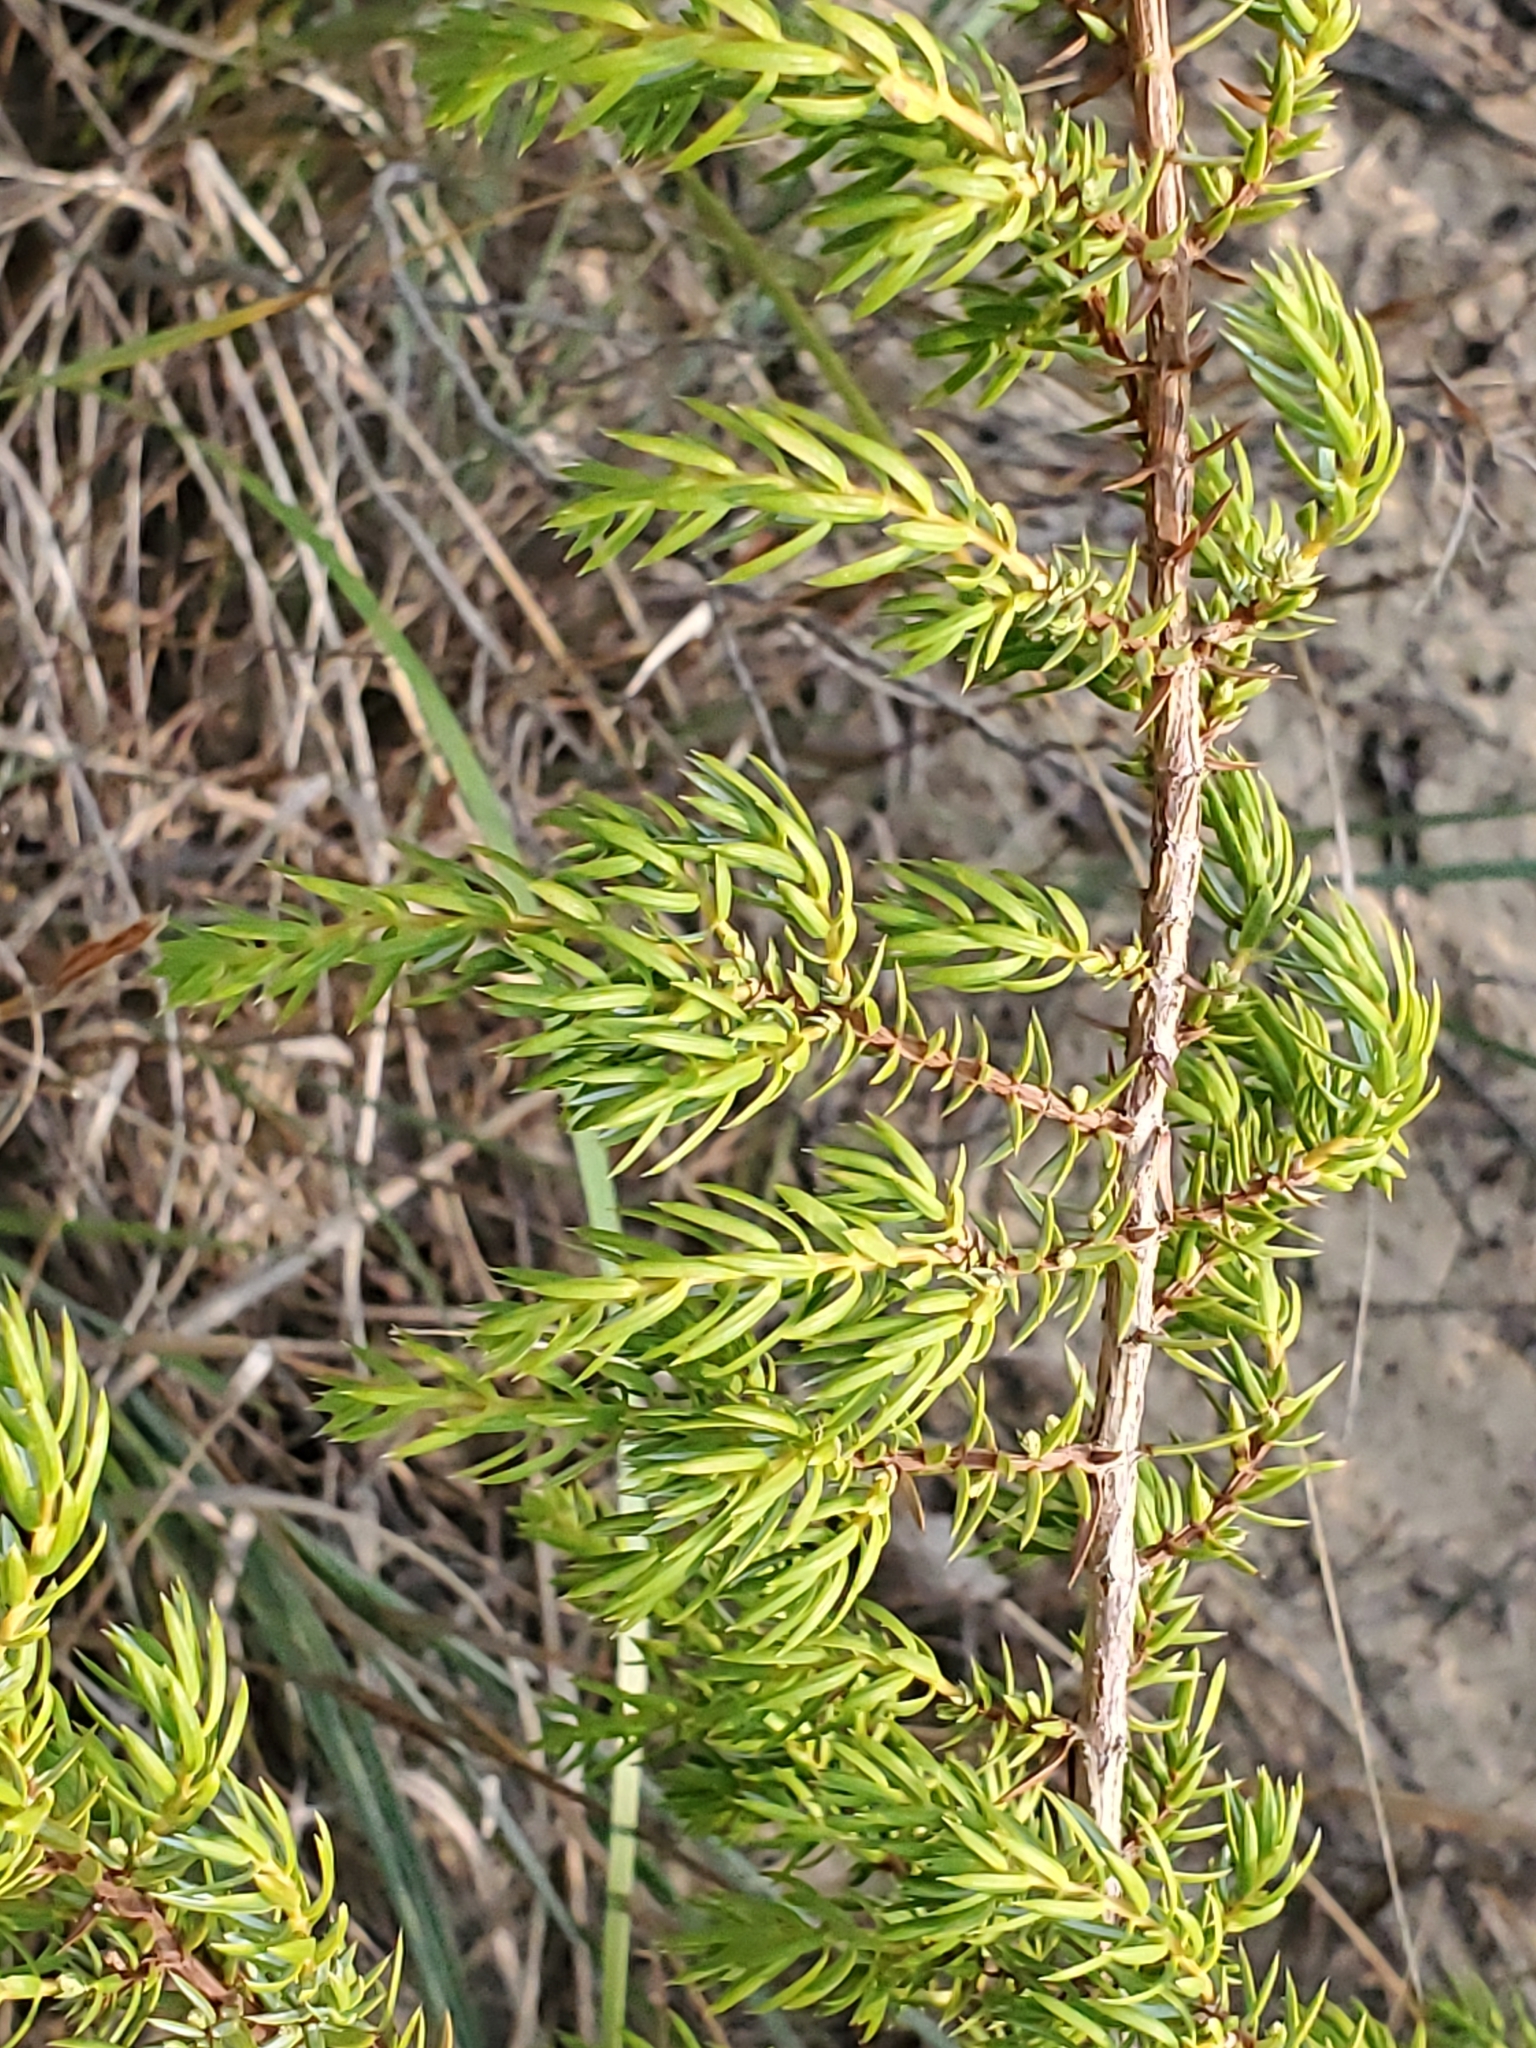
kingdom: Plantae
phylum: Tracheophyta
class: Pinopsida
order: Pinales
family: Cupressaceae
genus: Juniperus
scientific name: Juniperus communis
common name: Common juniper
